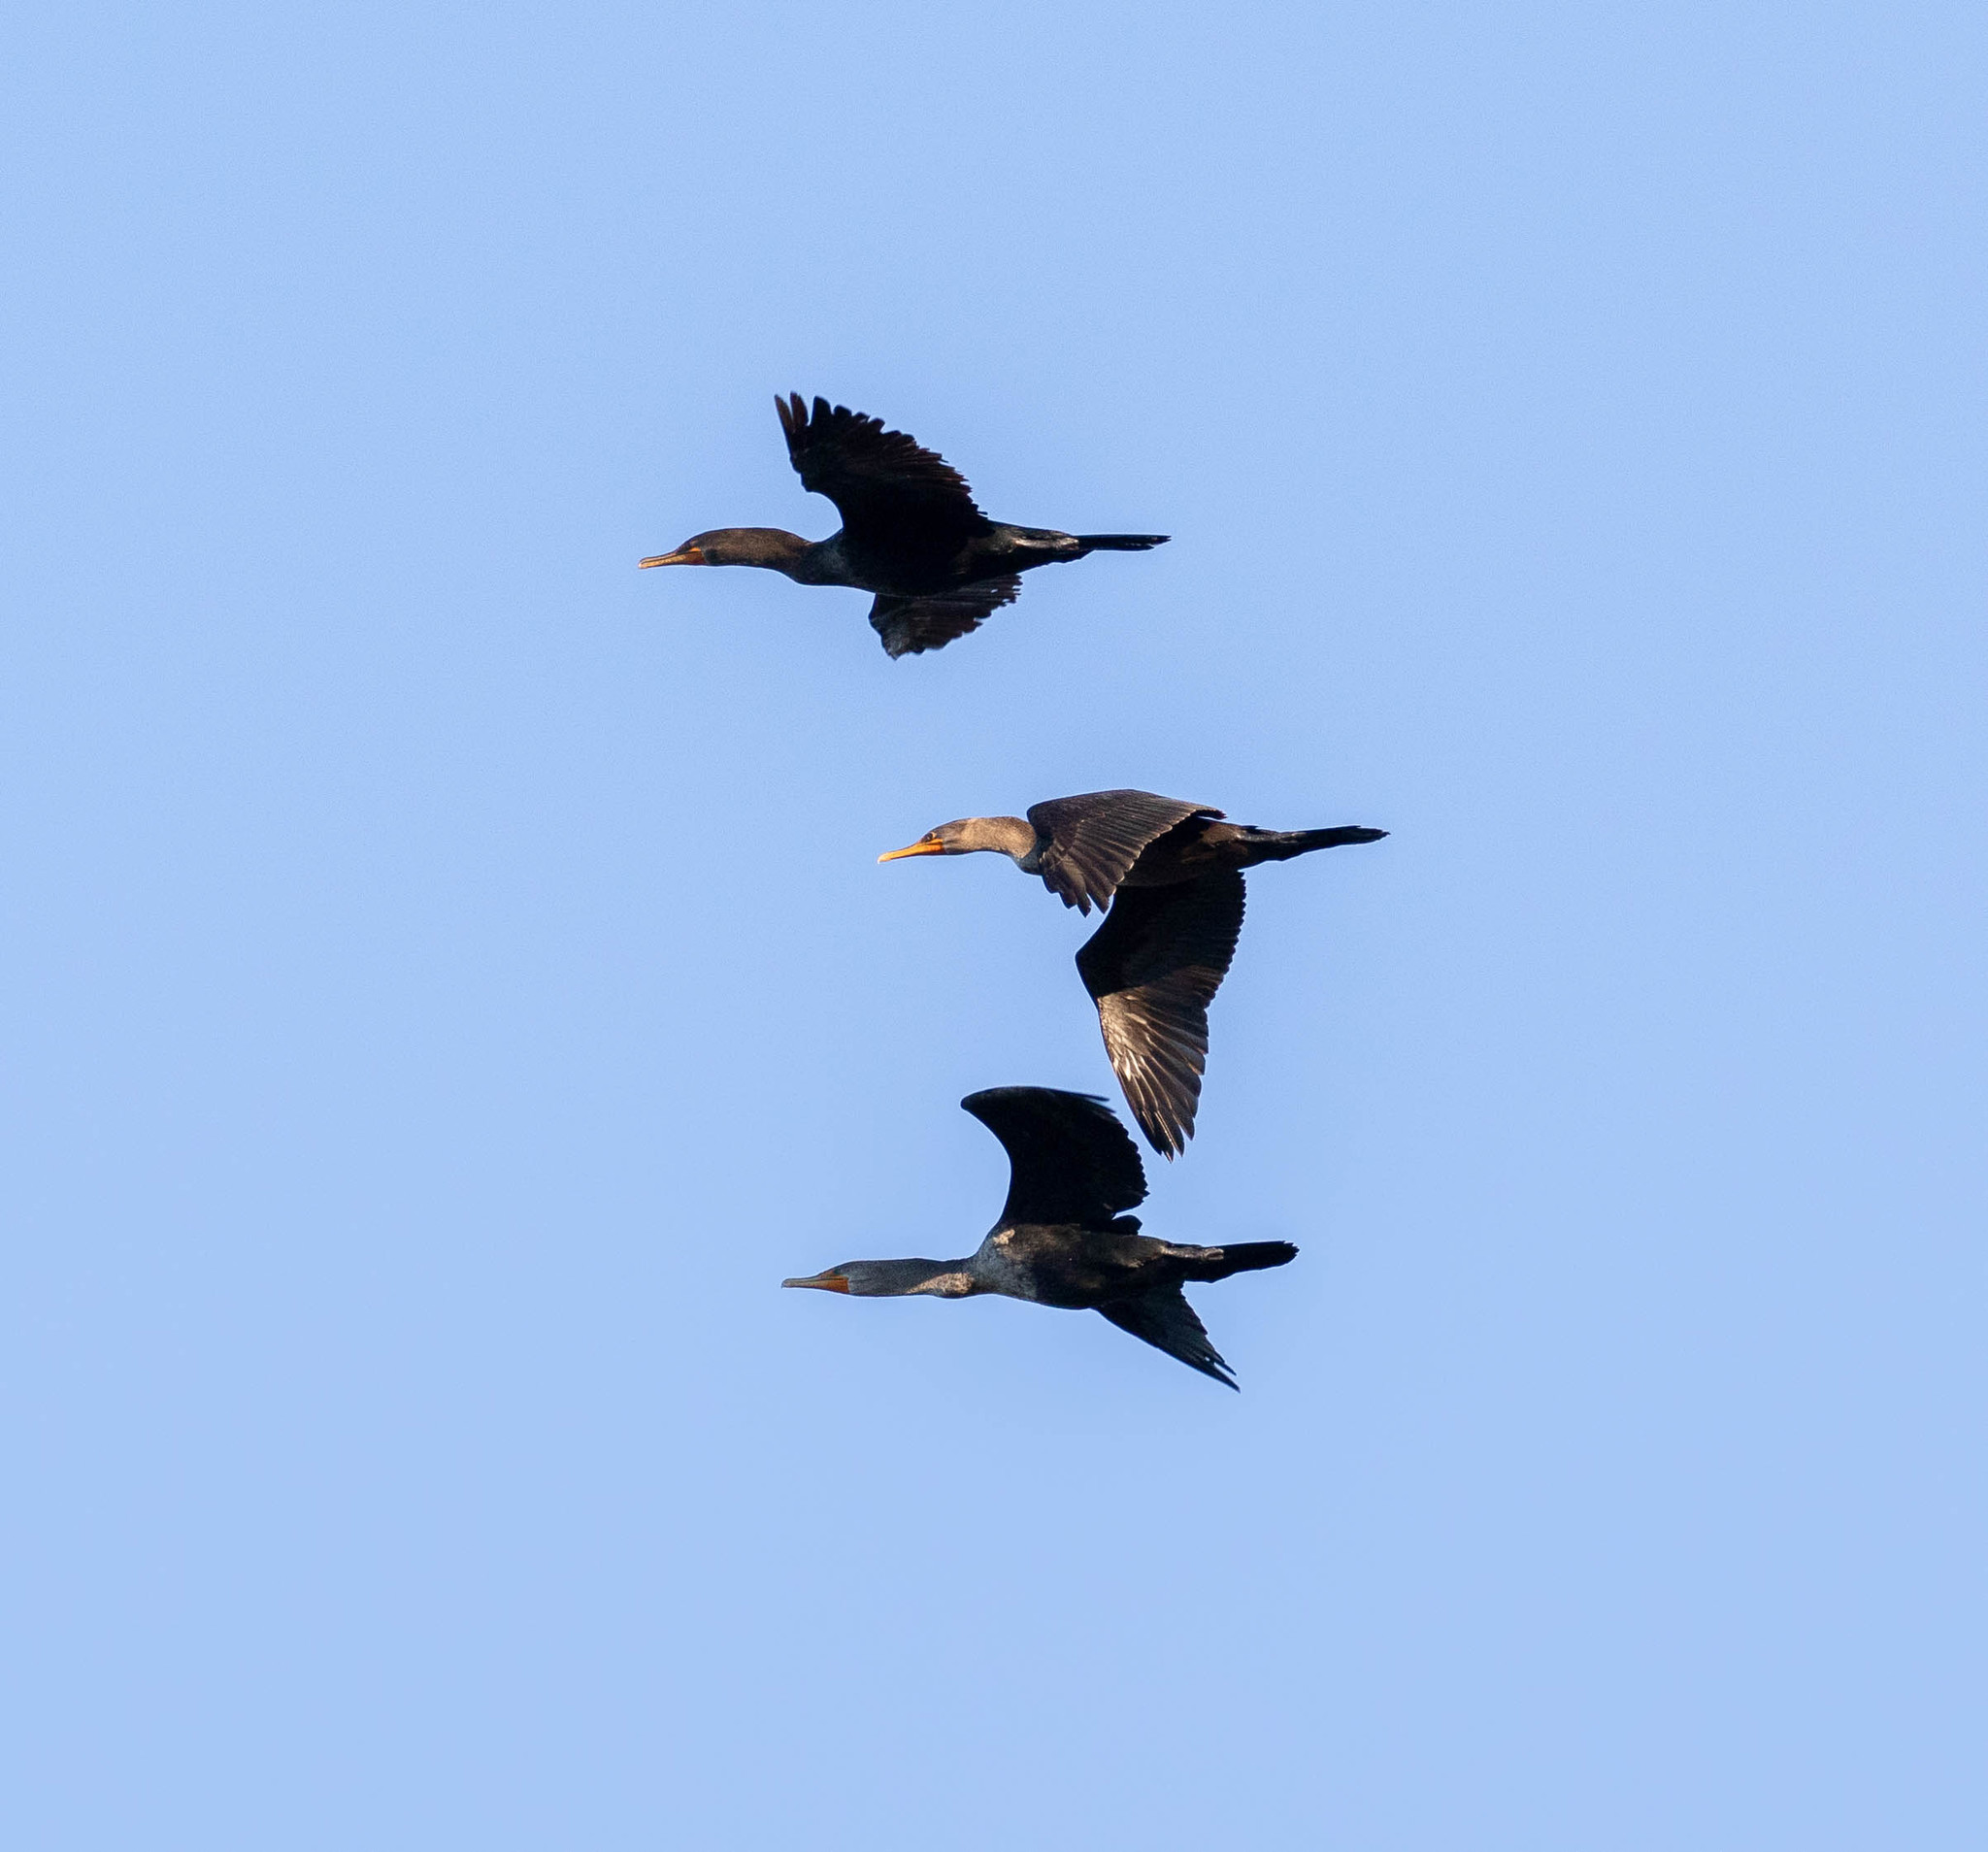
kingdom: Animalia
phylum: Chordata
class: Aves
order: Suliformes
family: Phalacrocoracidae
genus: Phalacrocorax
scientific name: Phalacrocorax auritus
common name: Double-crested cormorant
